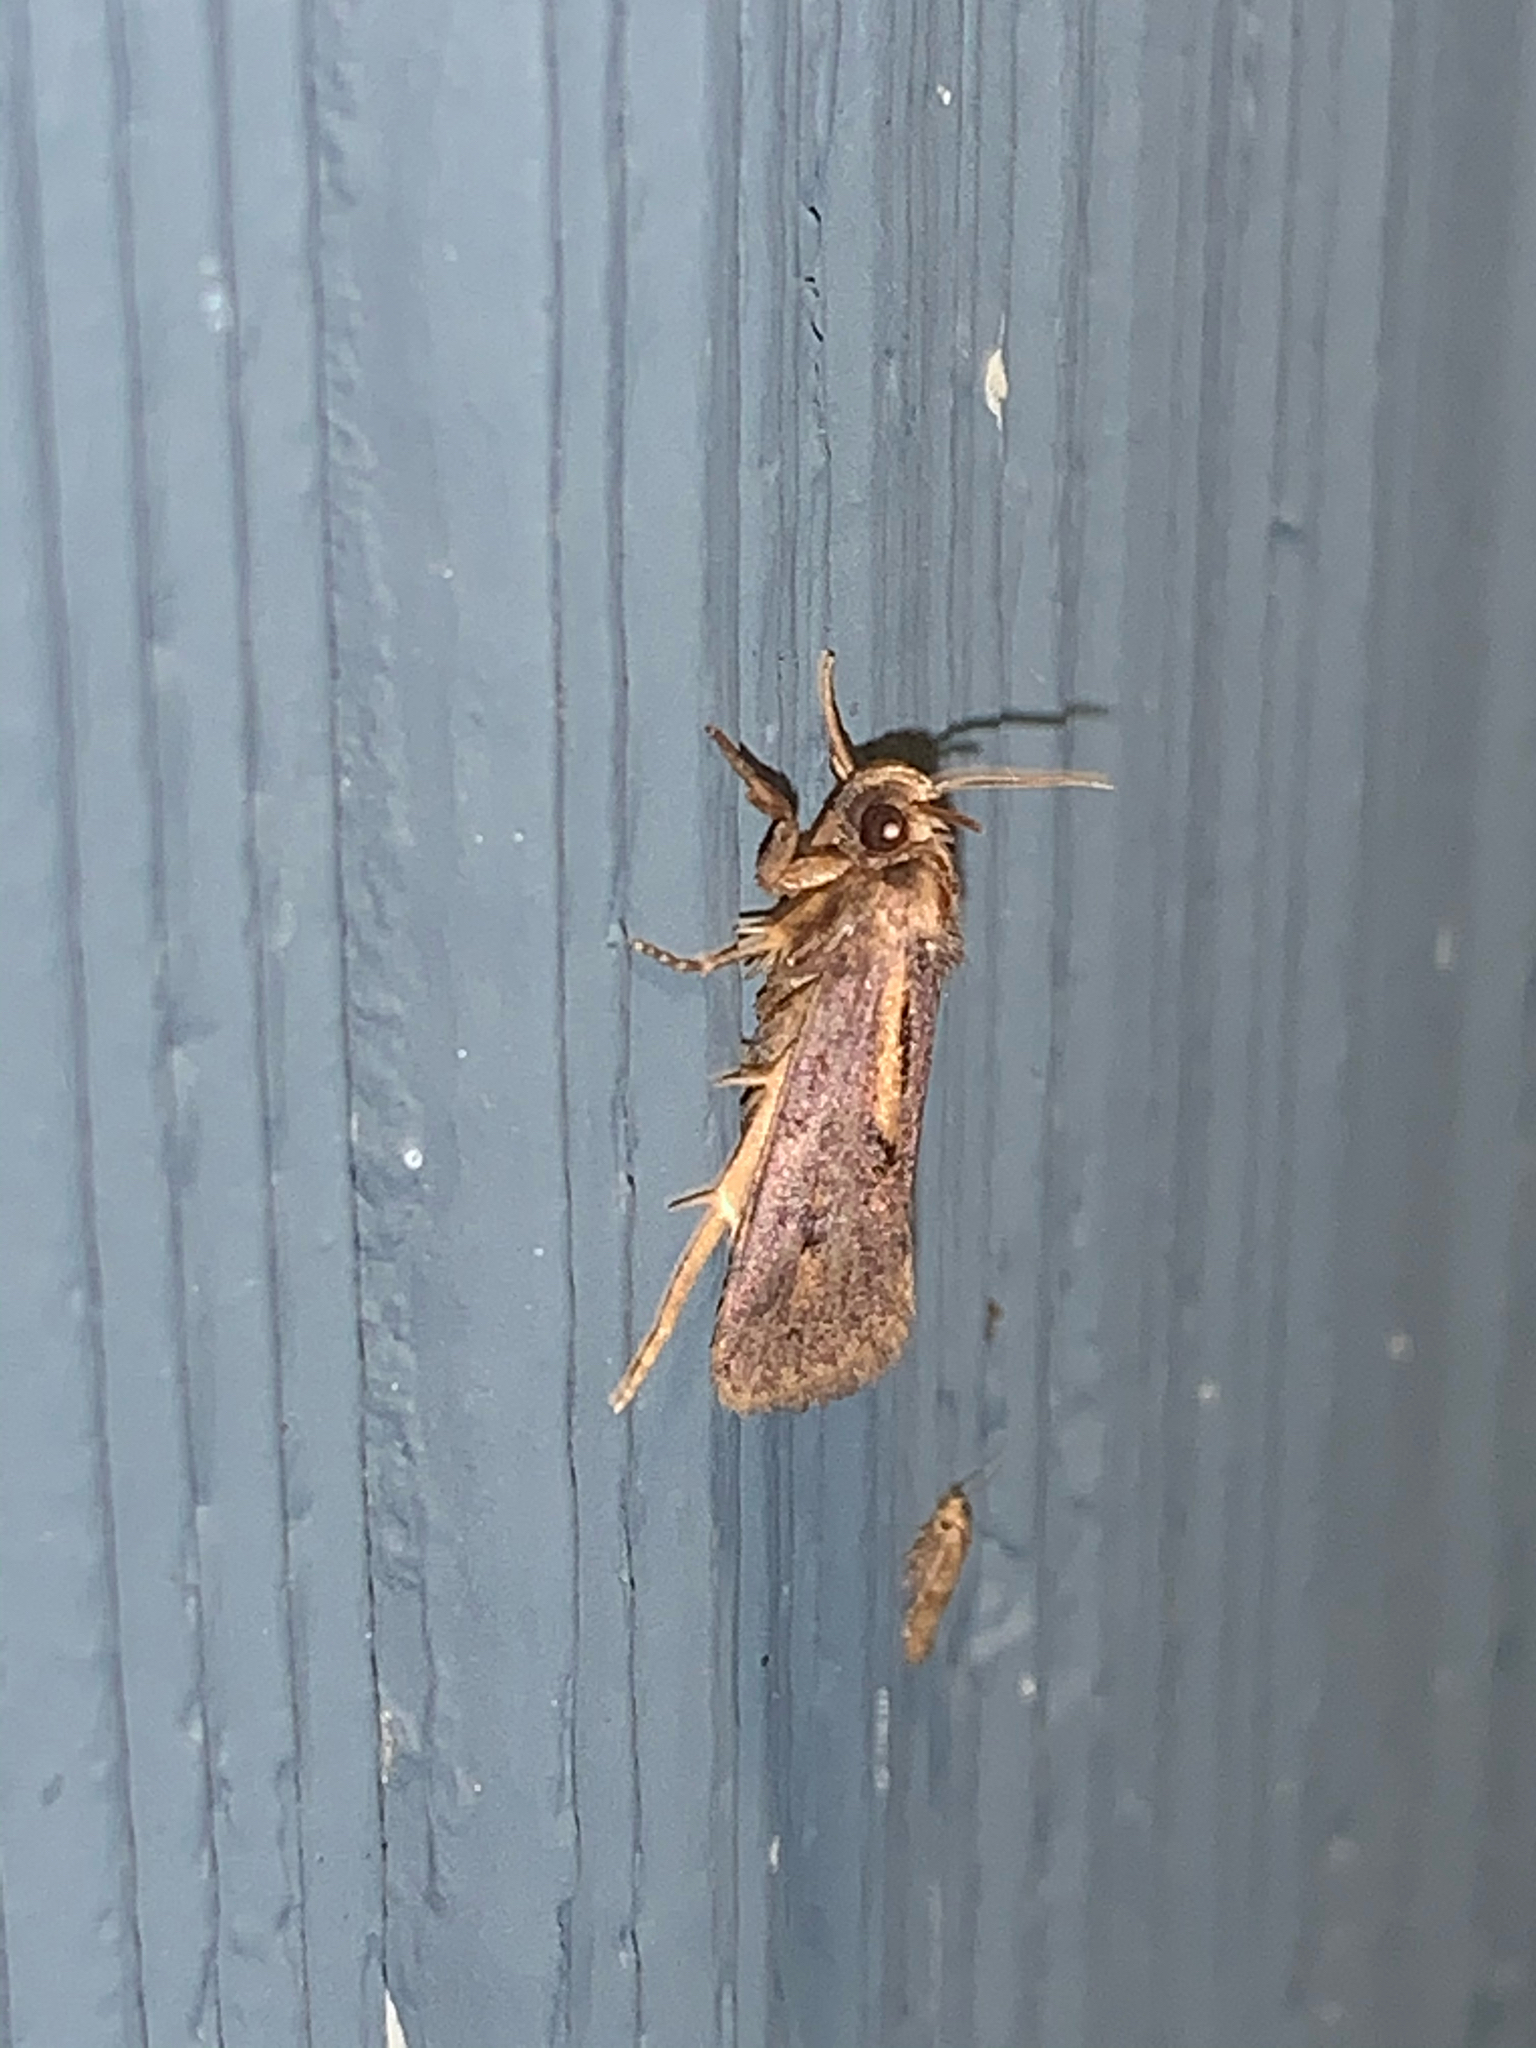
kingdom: Animalia
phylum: Arthropoda
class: Insecta
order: Lepidoptera
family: Tineidae
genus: Acrolophus
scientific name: Acrolophus popeanella
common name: Clemens' grass tubeworm moth
